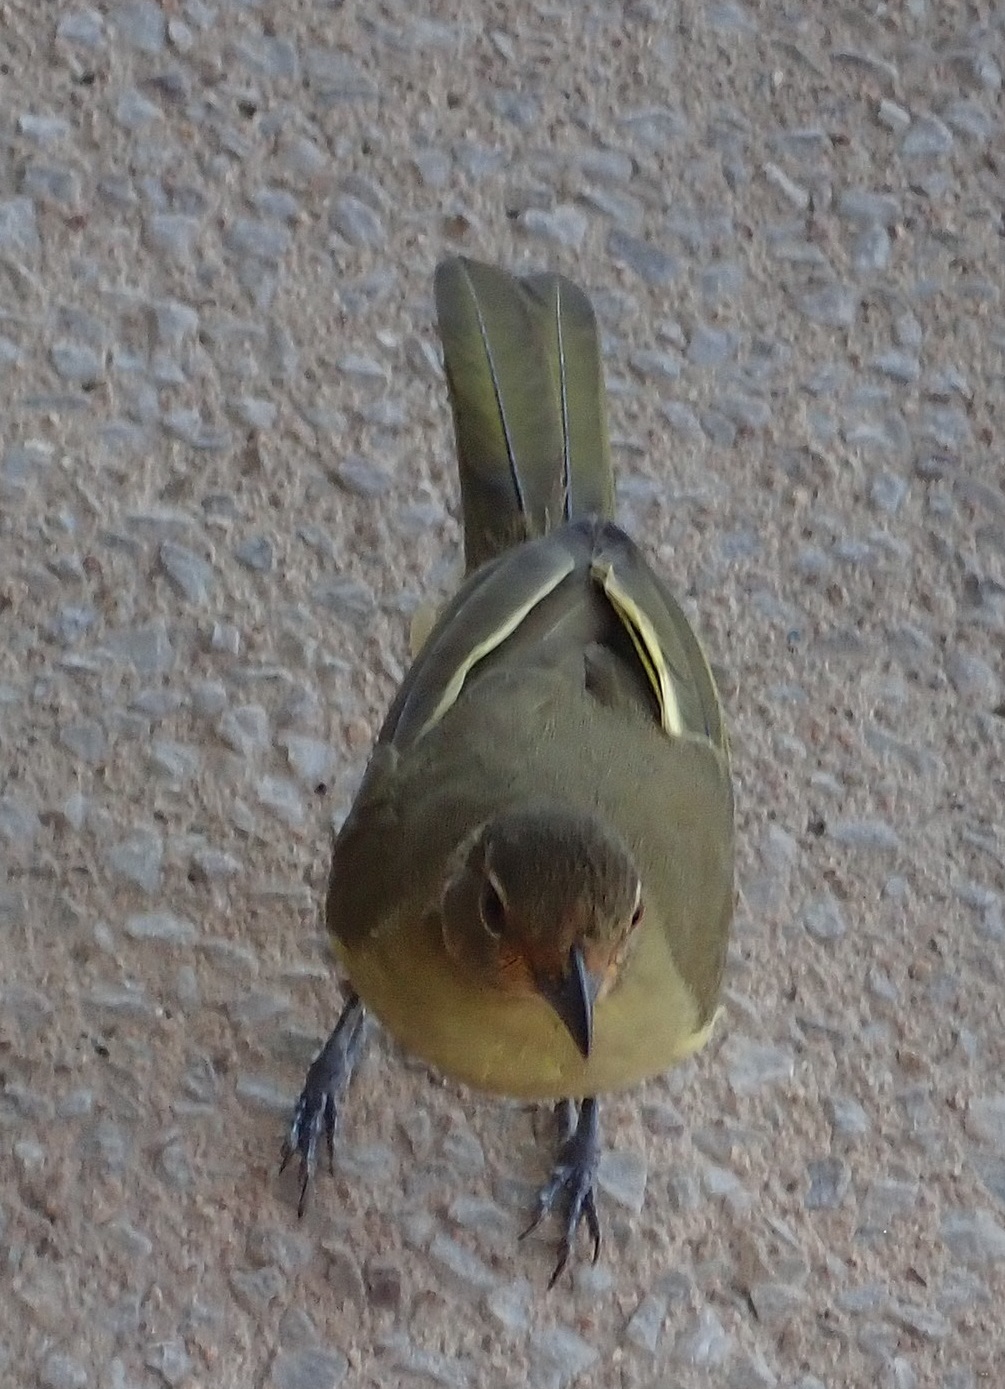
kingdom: Animalia
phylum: Chordata
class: Aves
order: Passeriformes
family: Pycnonotidae
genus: Chlorocichla
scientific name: Chlorocichla flaviventris
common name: Yellow-bellied greenbul
